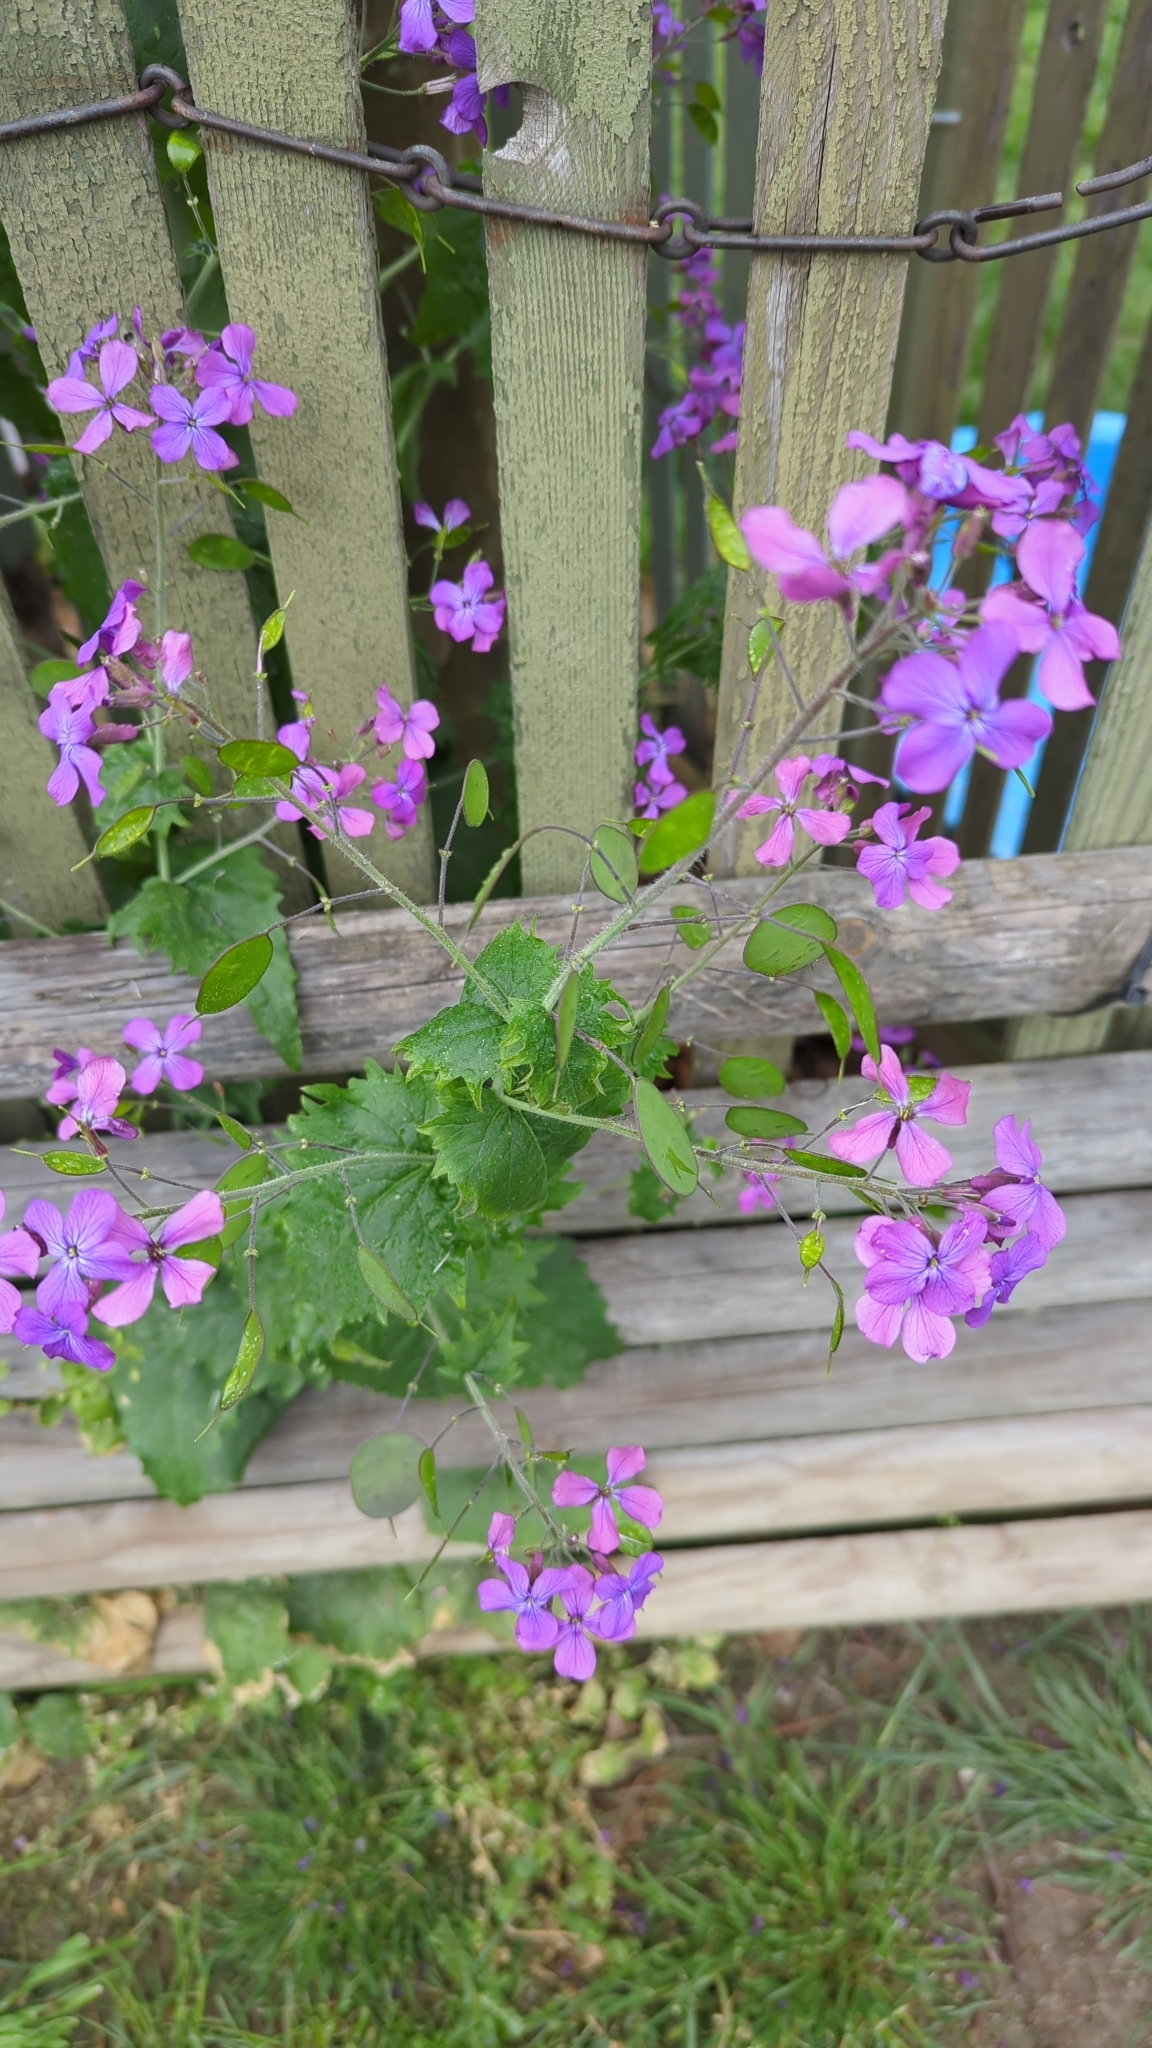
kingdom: Plantae
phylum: Tracheophyta
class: Magnoliopsida
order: Brassicales
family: Brassicaceae
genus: Lunaria
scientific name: Lunaria annua
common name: Honesty
